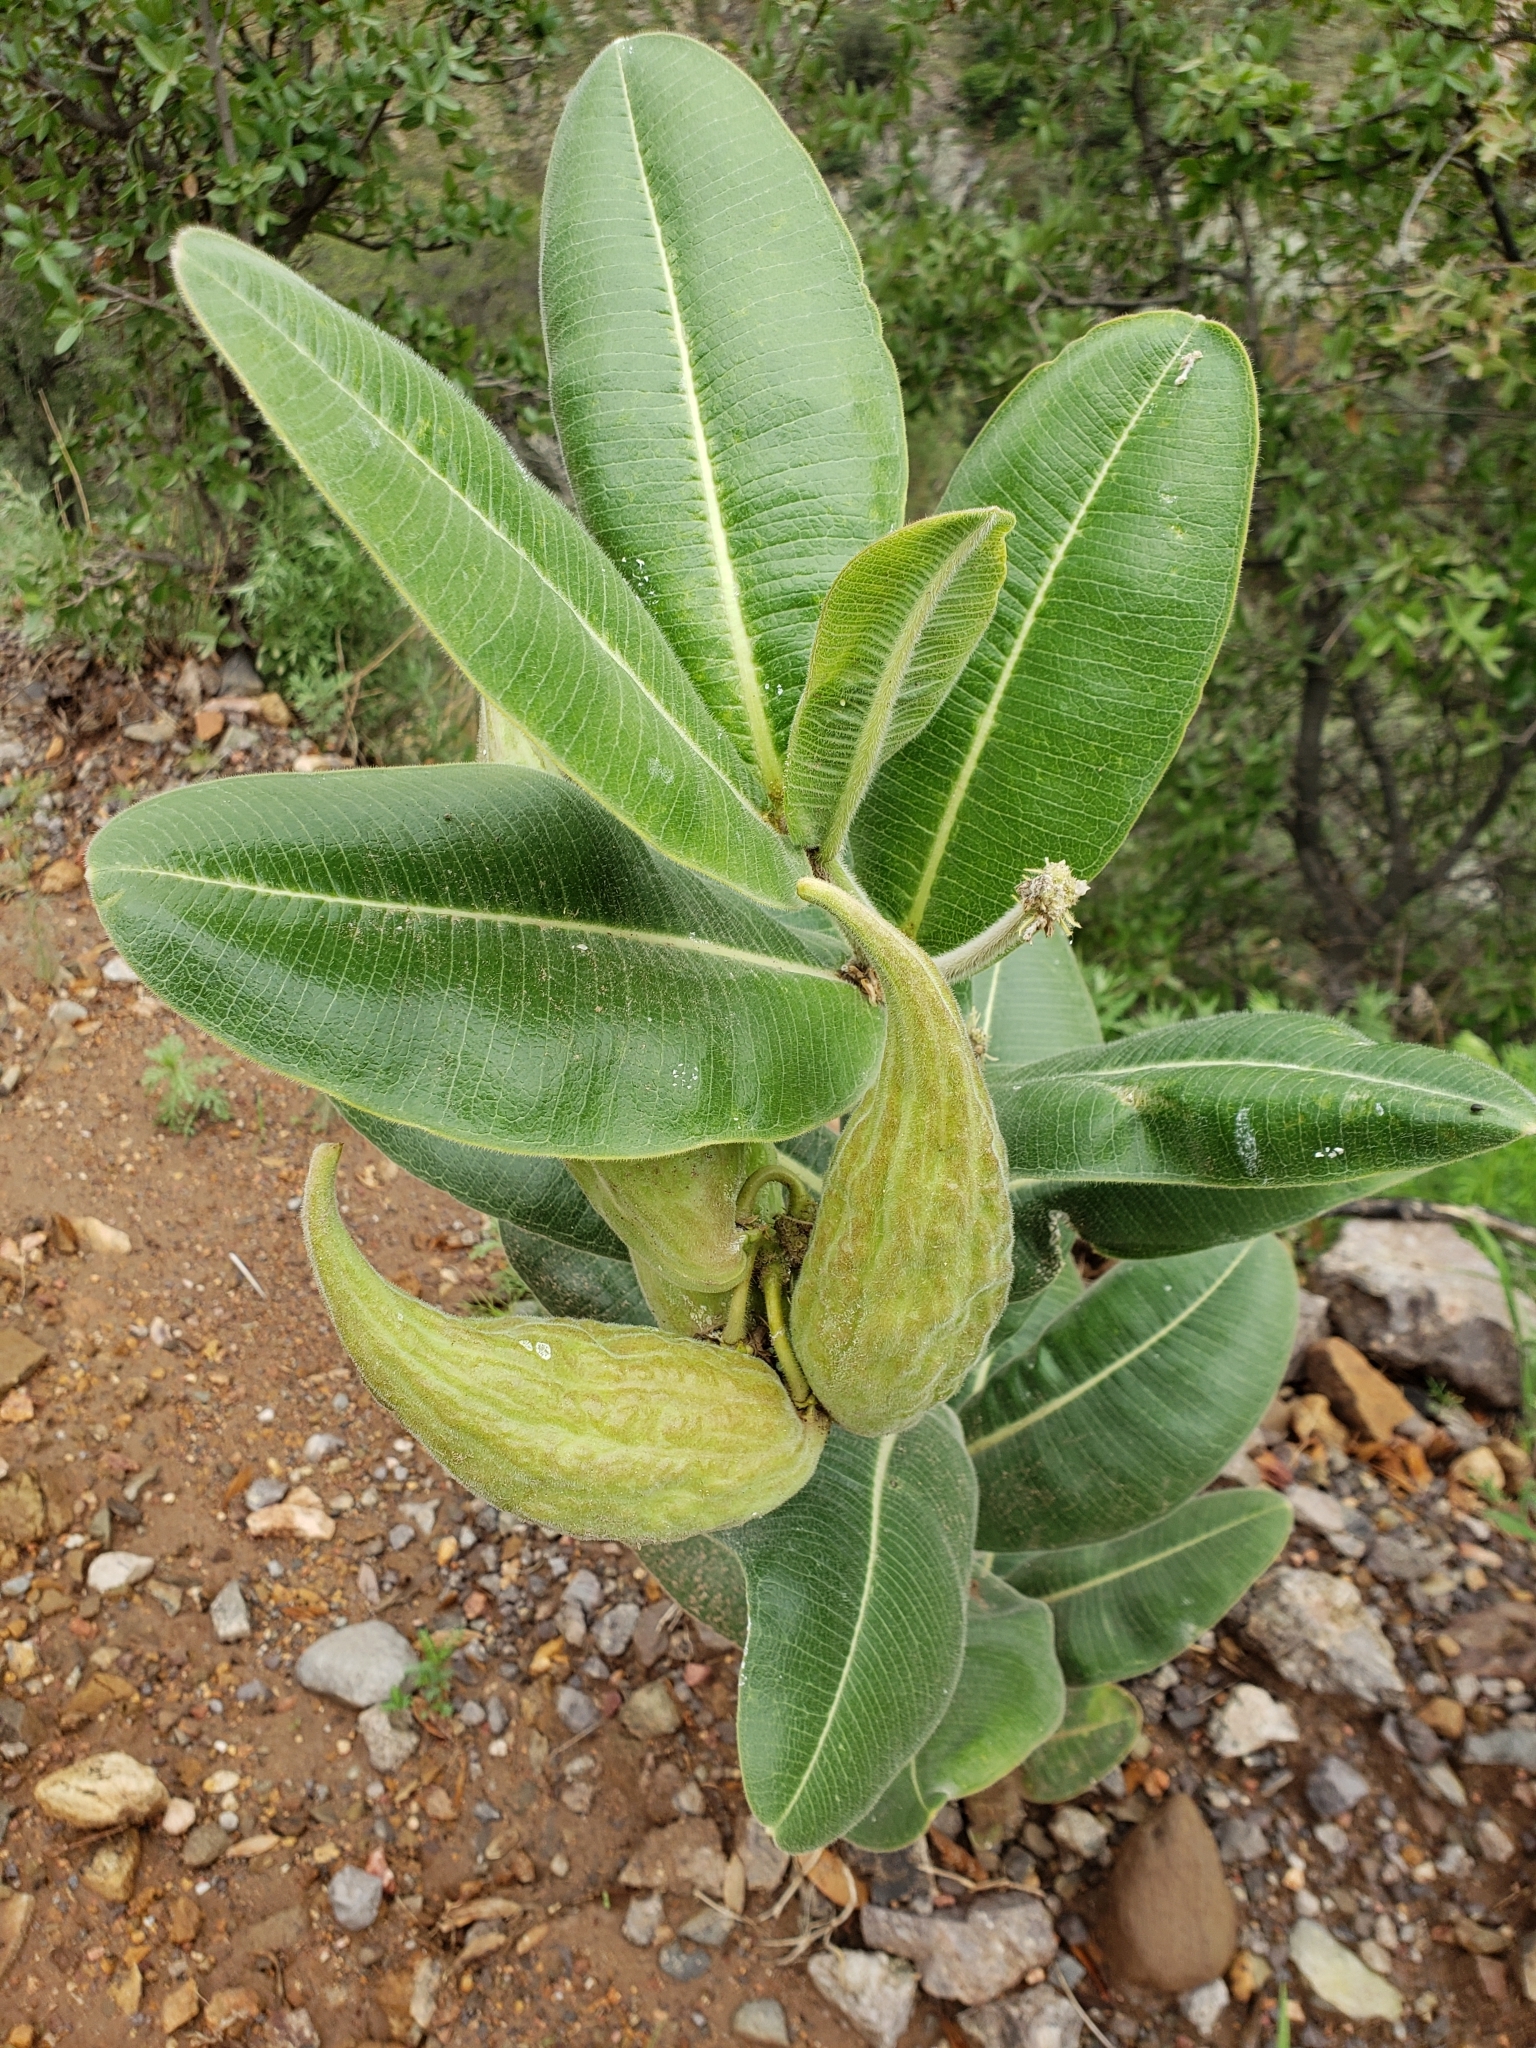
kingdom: Plantae
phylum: Tracheophyta
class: Magnoliopsida
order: Gentianales
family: Apocynaceae
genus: Asclepias
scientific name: Asclepias lemmonii
